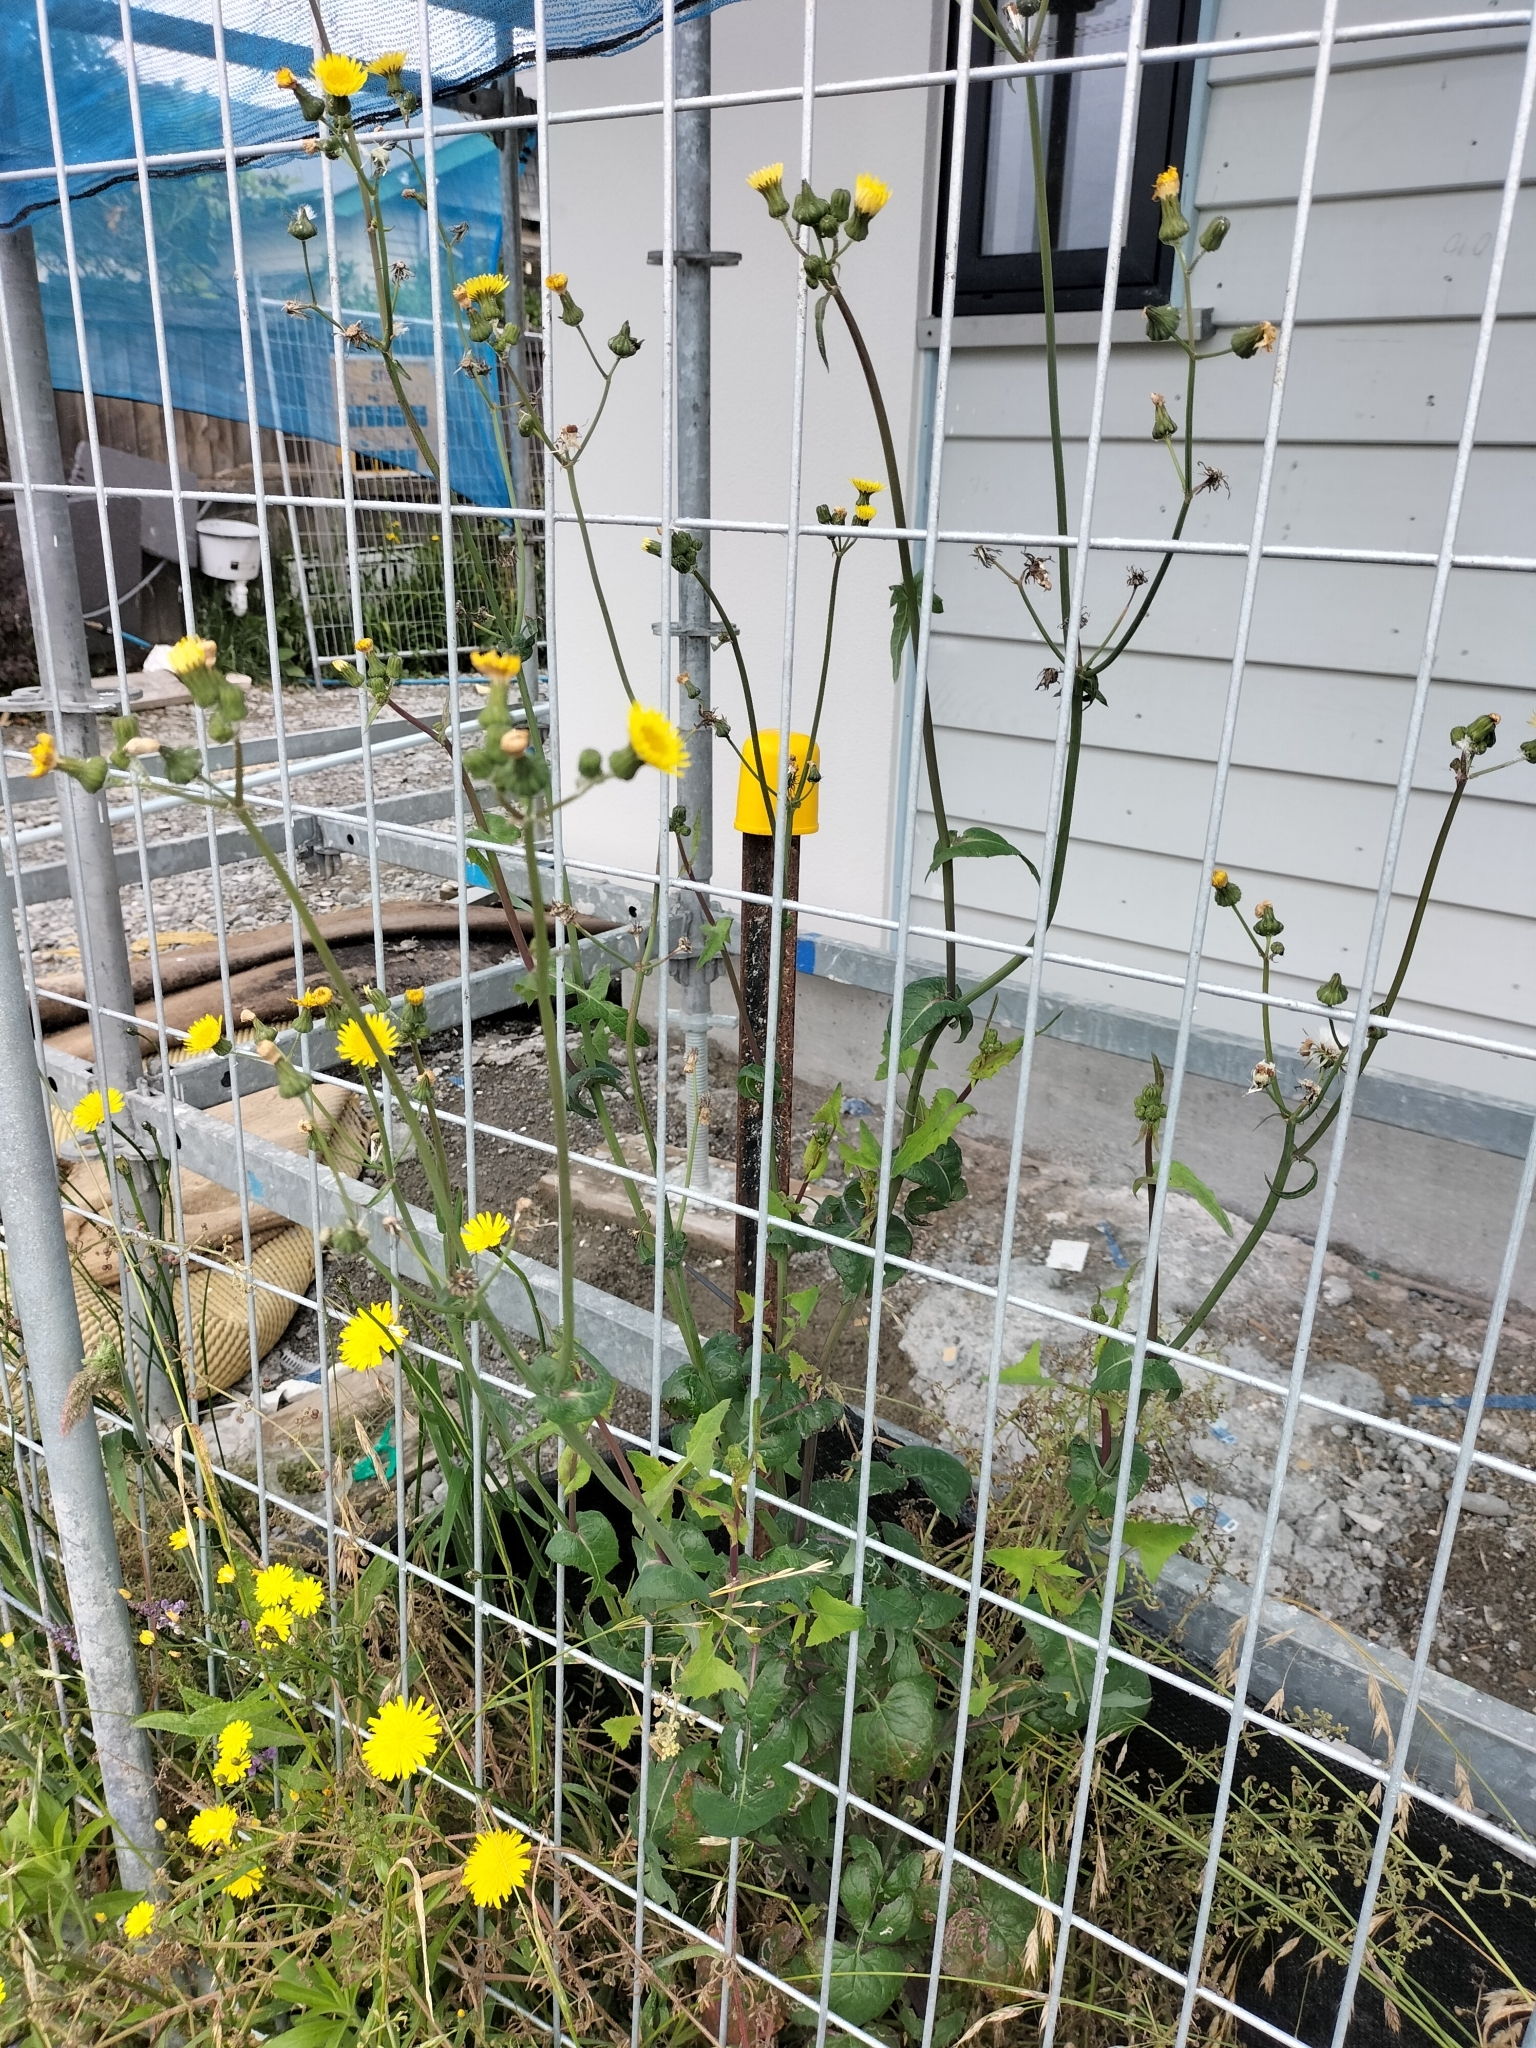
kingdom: Plantae
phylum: Tracheophyta
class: Magnoliopsida
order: Asterales
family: Asteraceae
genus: Sonchus
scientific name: Sonchus oleraceus
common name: Common sowthistle
